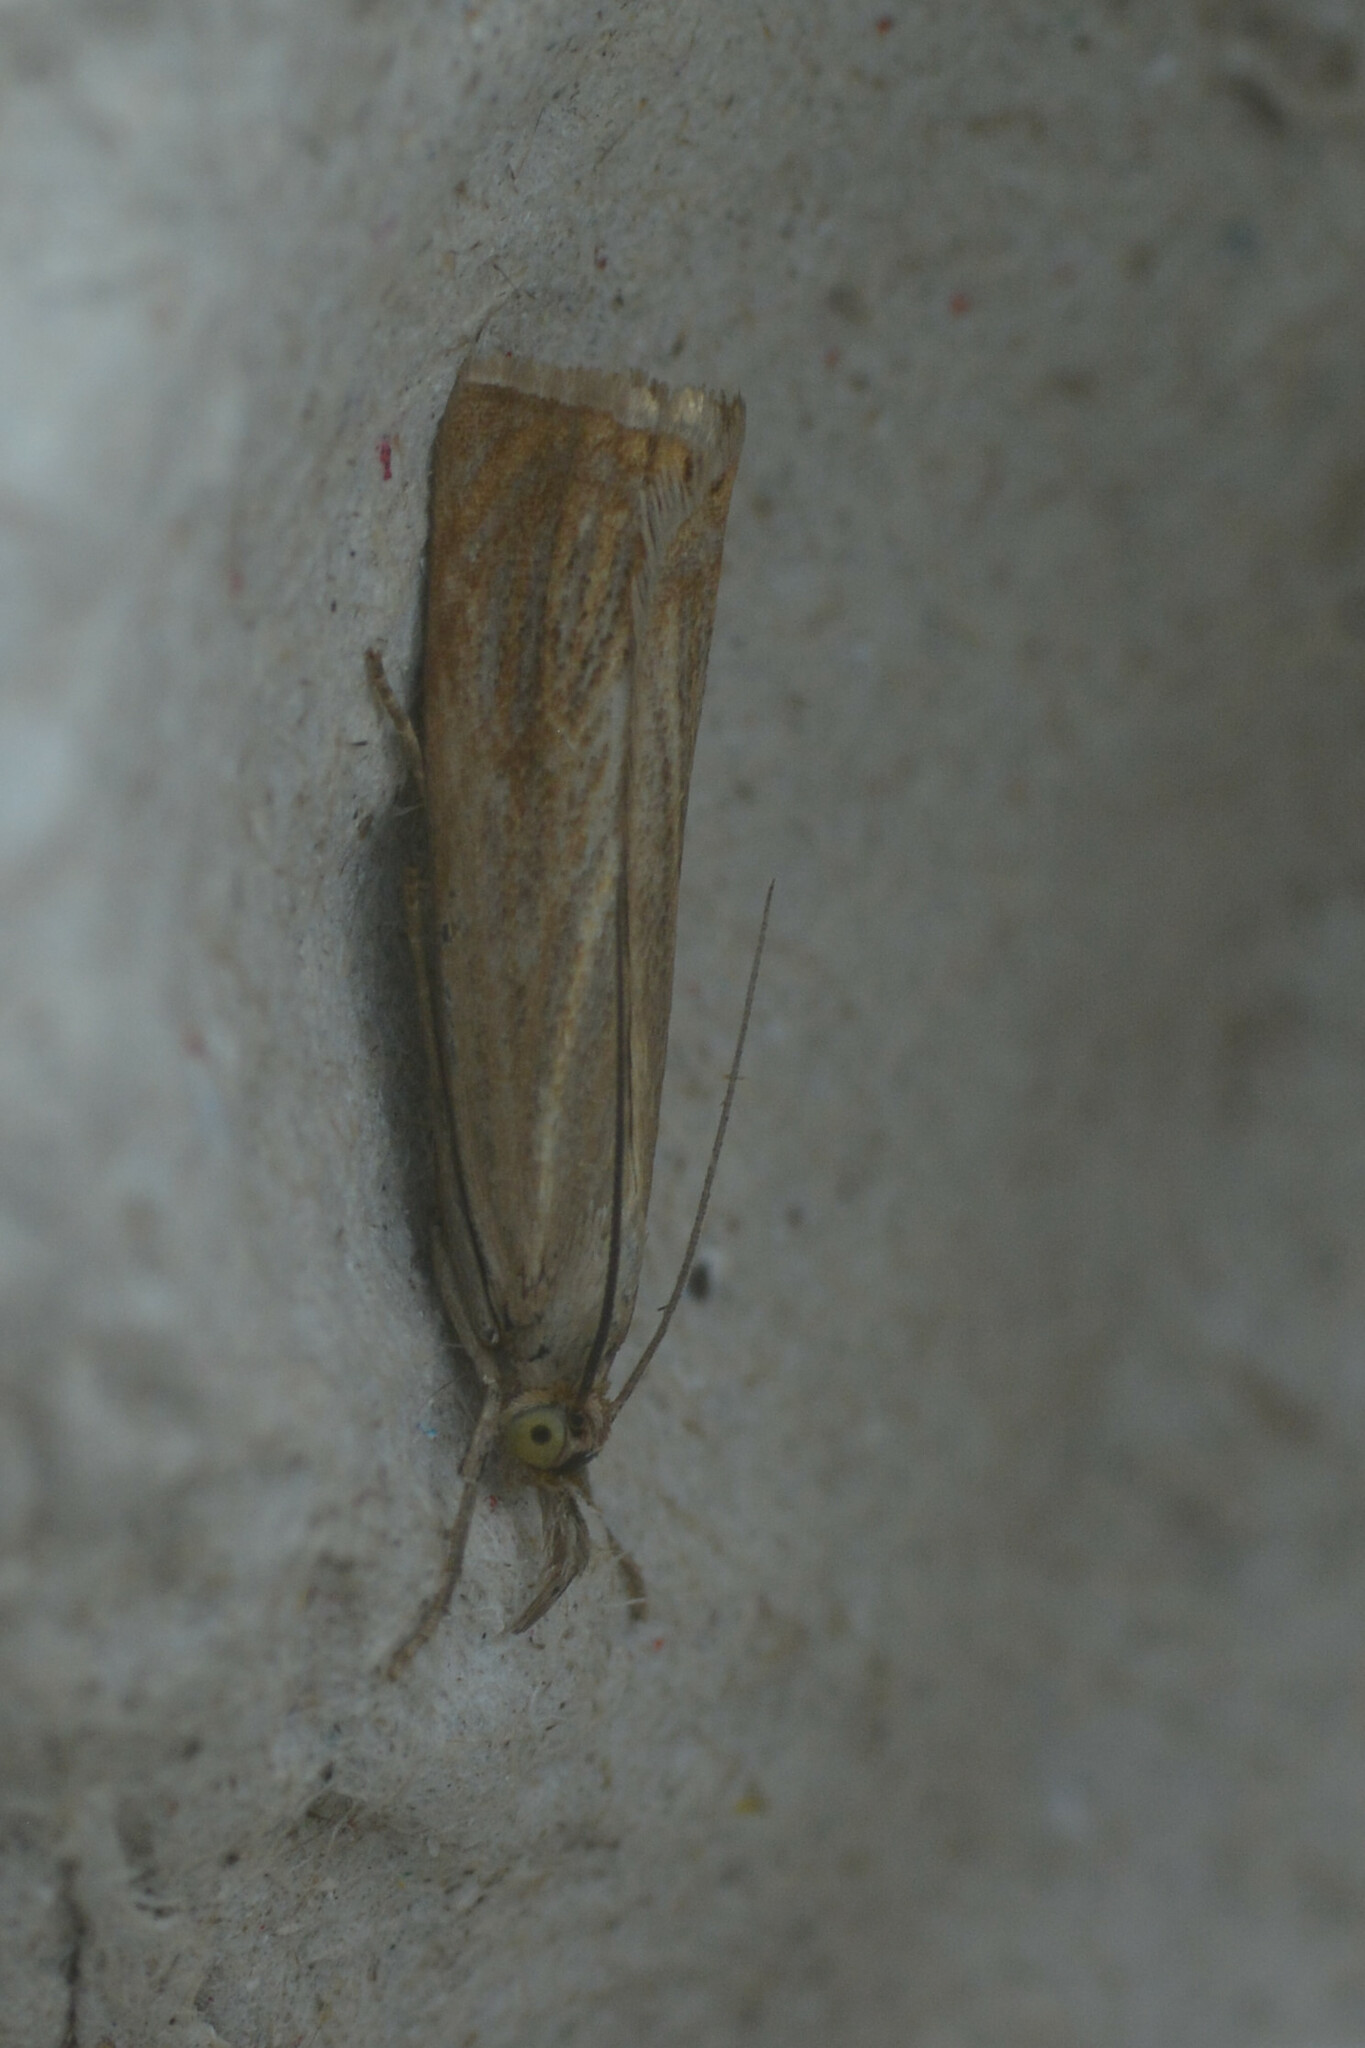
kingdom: Animalia
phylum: Arthropoda
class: Insecta
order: Lepidoptera
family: Crambidae
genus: Chrysoteuchia
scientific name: Chrysoteuchia culmella
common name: Garden grass-veneer
